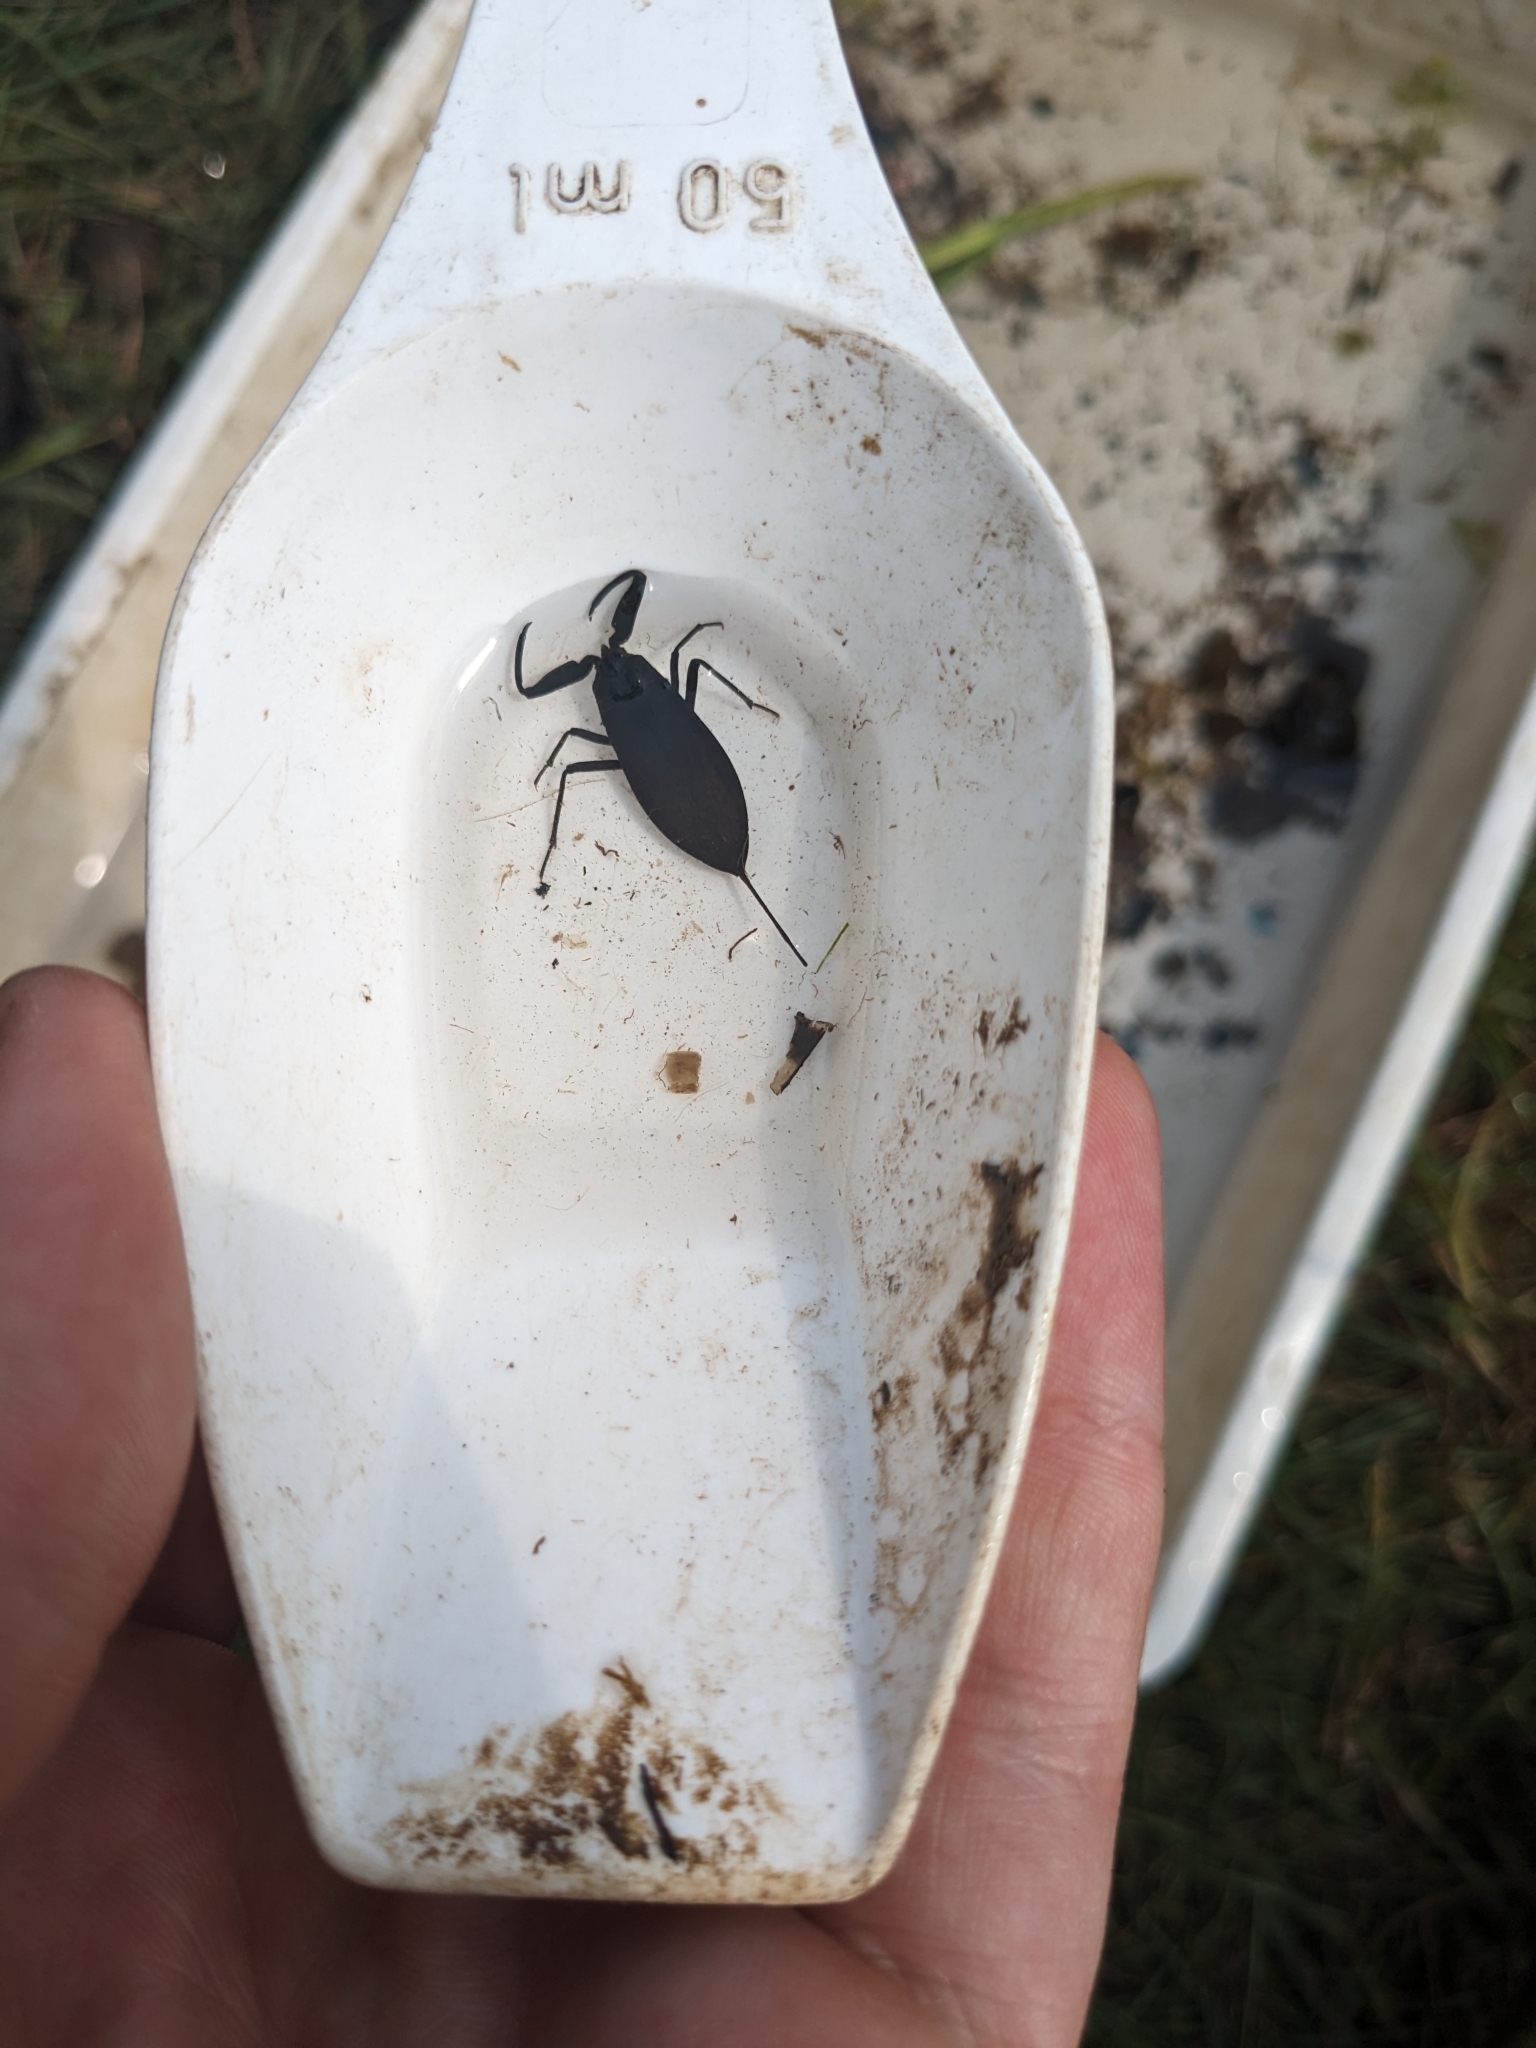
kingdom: Animalia
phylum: Arthropoda
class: Insecta
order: Hemiptera
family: Nepidae
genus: Nepa
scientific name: Nepa cinerea
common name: Water scorpion
